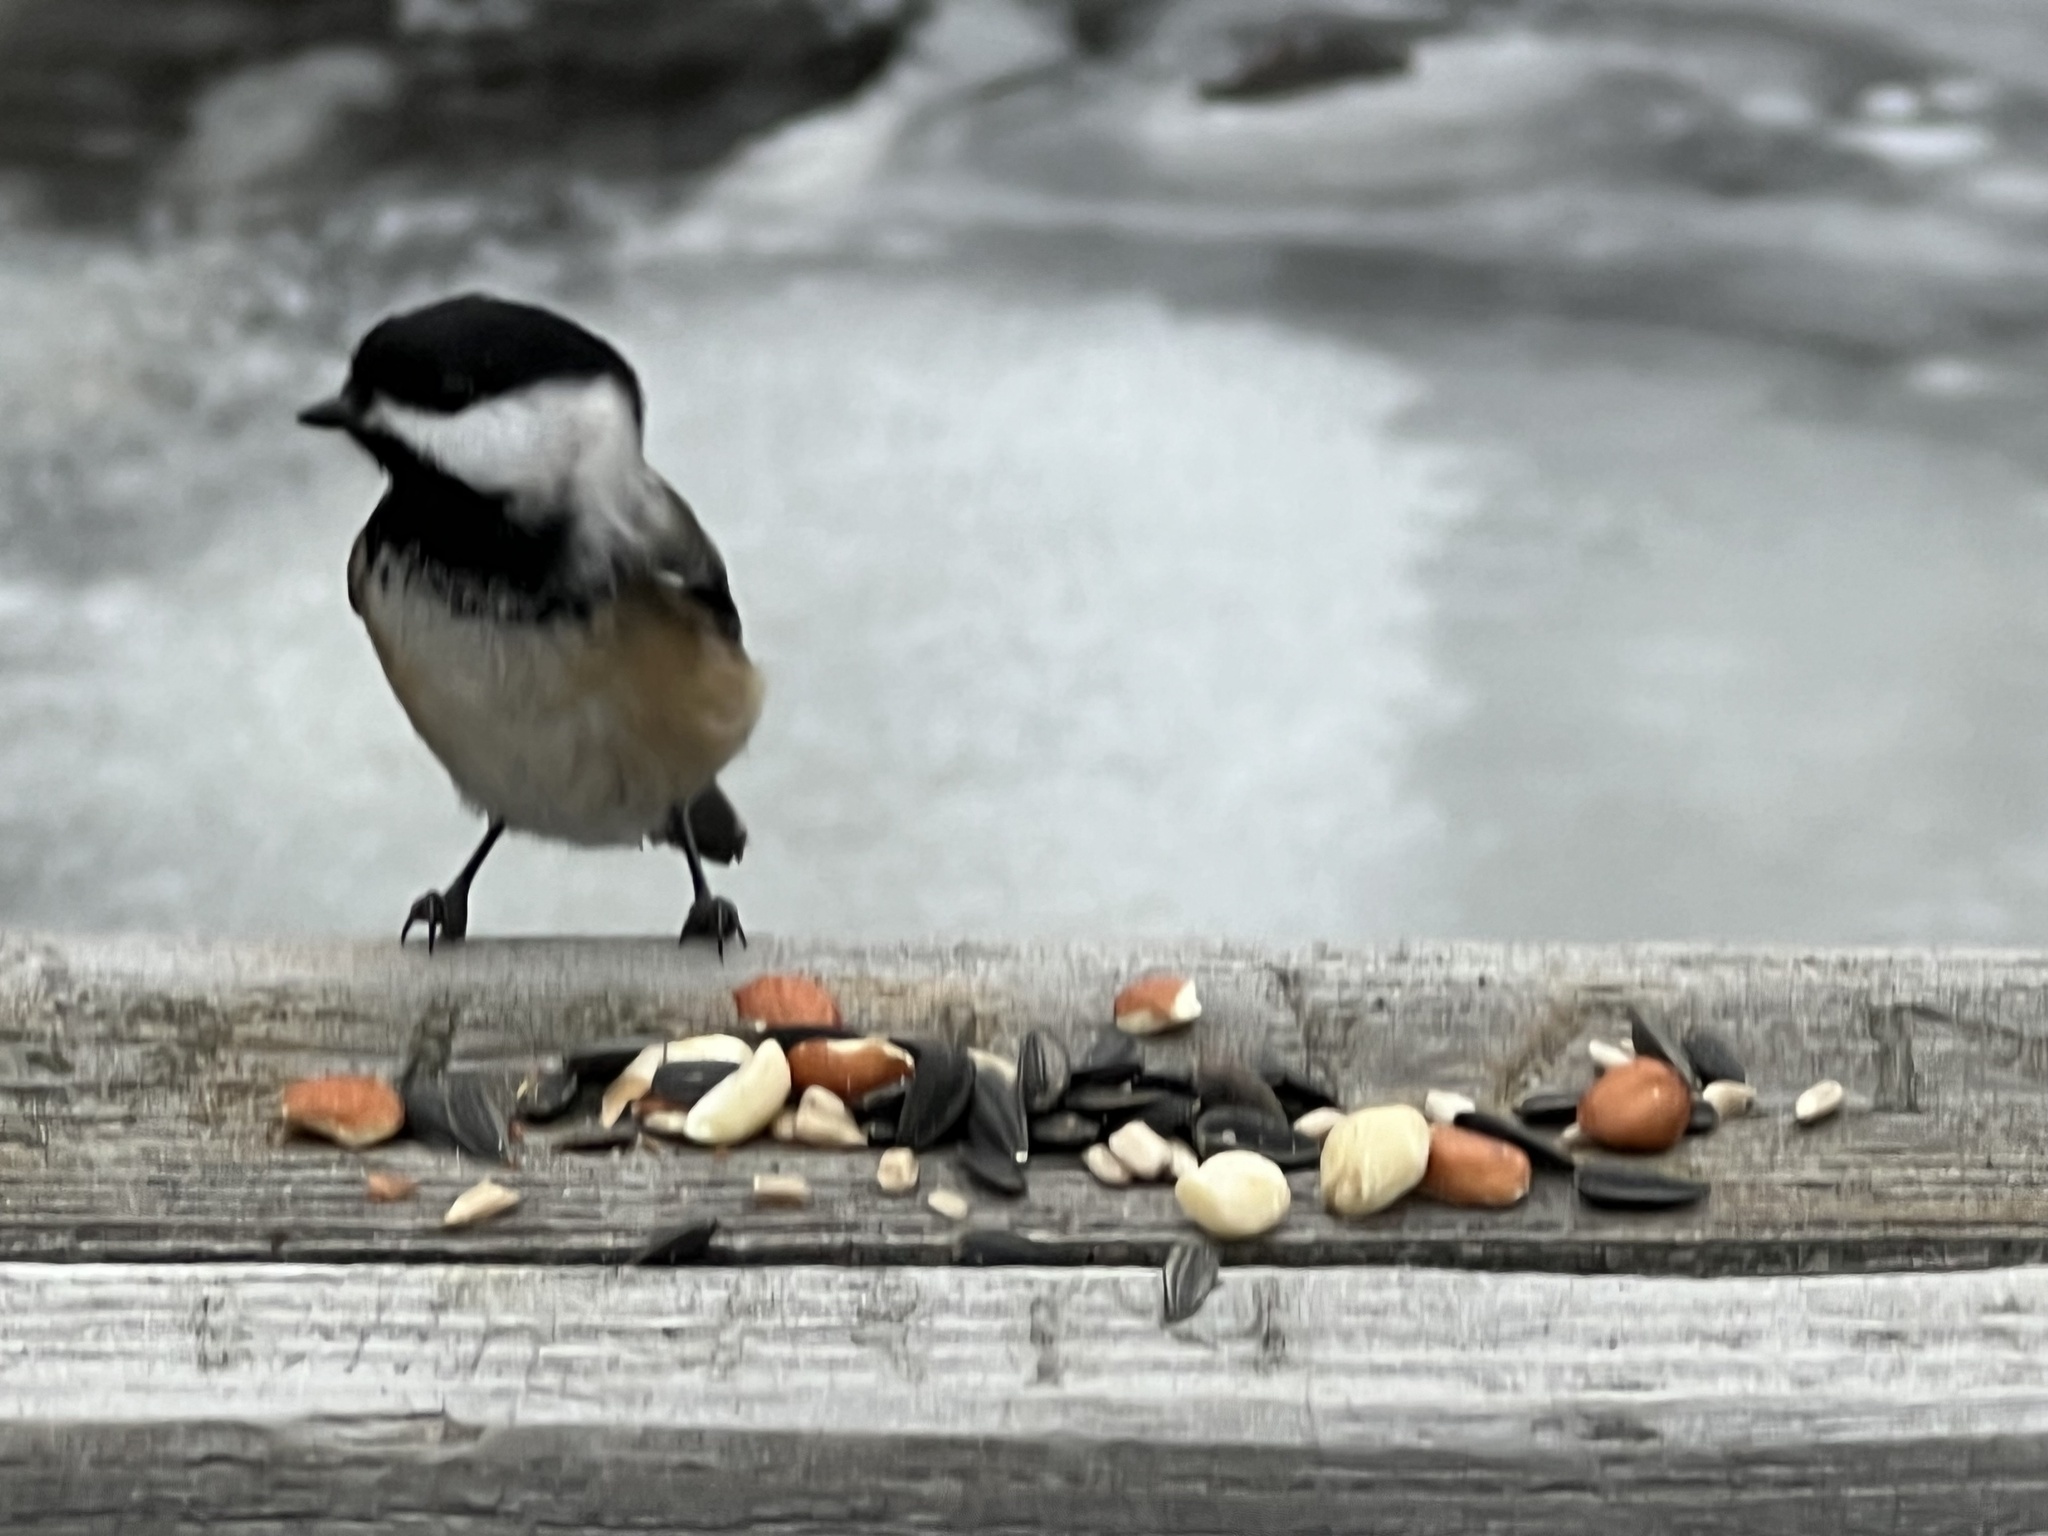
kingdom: Animalia
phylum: Chordata
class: Aves
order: Passeriformes
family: Paridae
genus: Poecile
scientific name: Poecile atricapillus
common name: Black-capped chickadee
